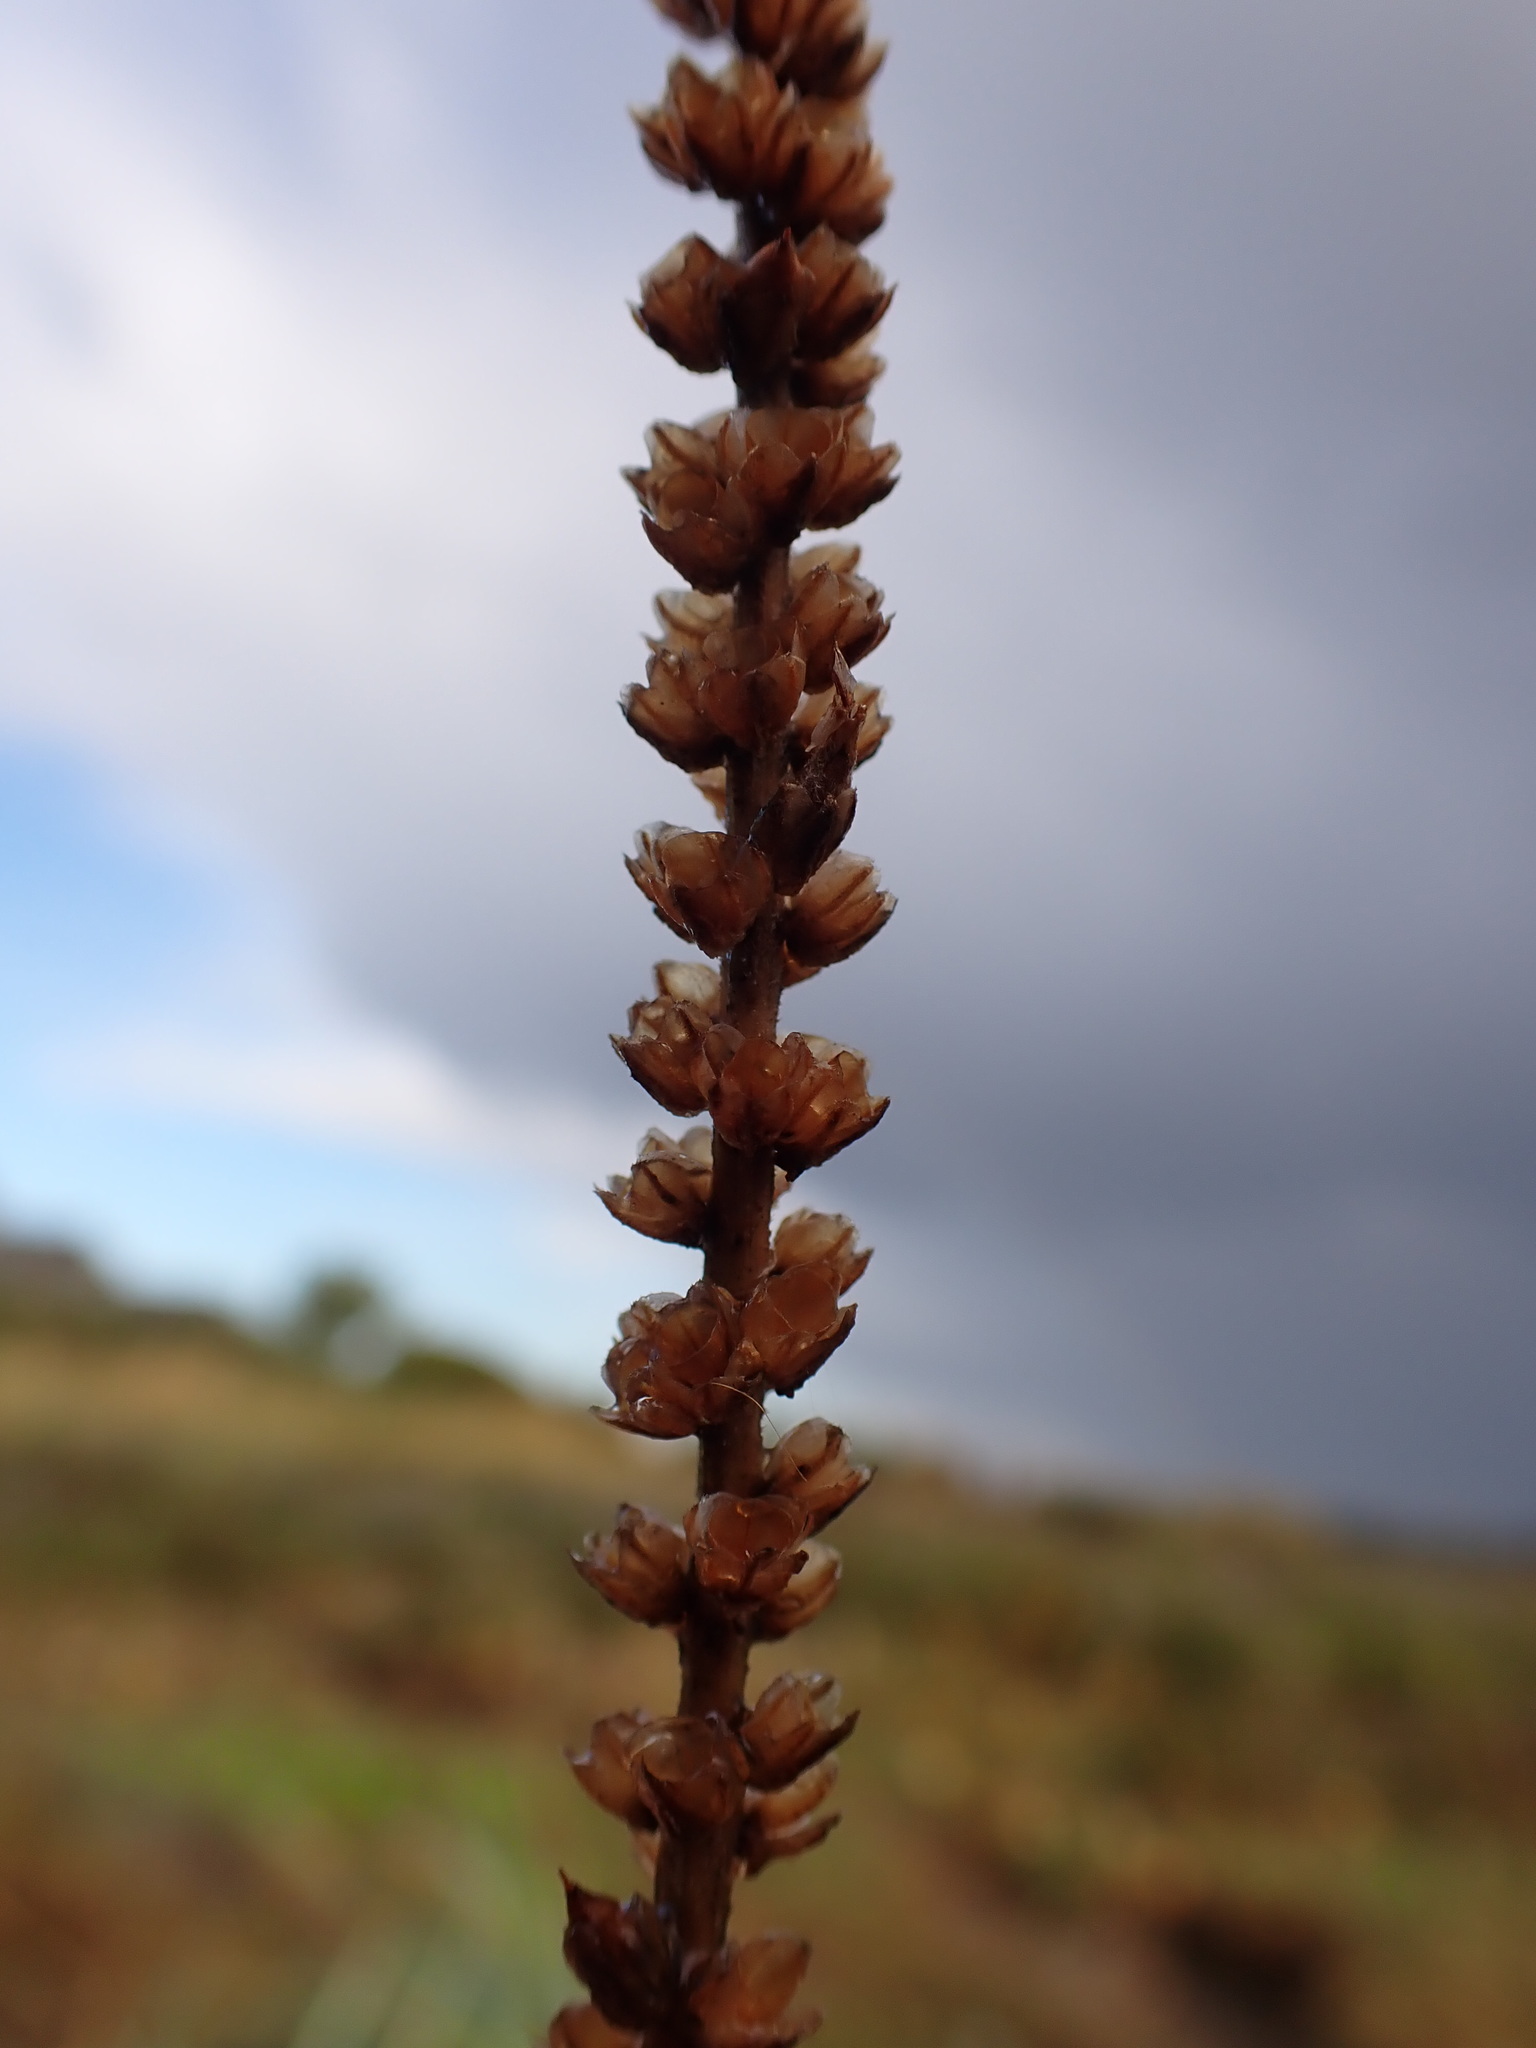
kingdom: Plantae
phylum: Tracheophyta
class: Magnoliopsida
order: Lamiales
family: Plantaginaceae
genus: Plantago
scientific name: Plantago maritima
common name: Sea plantain
